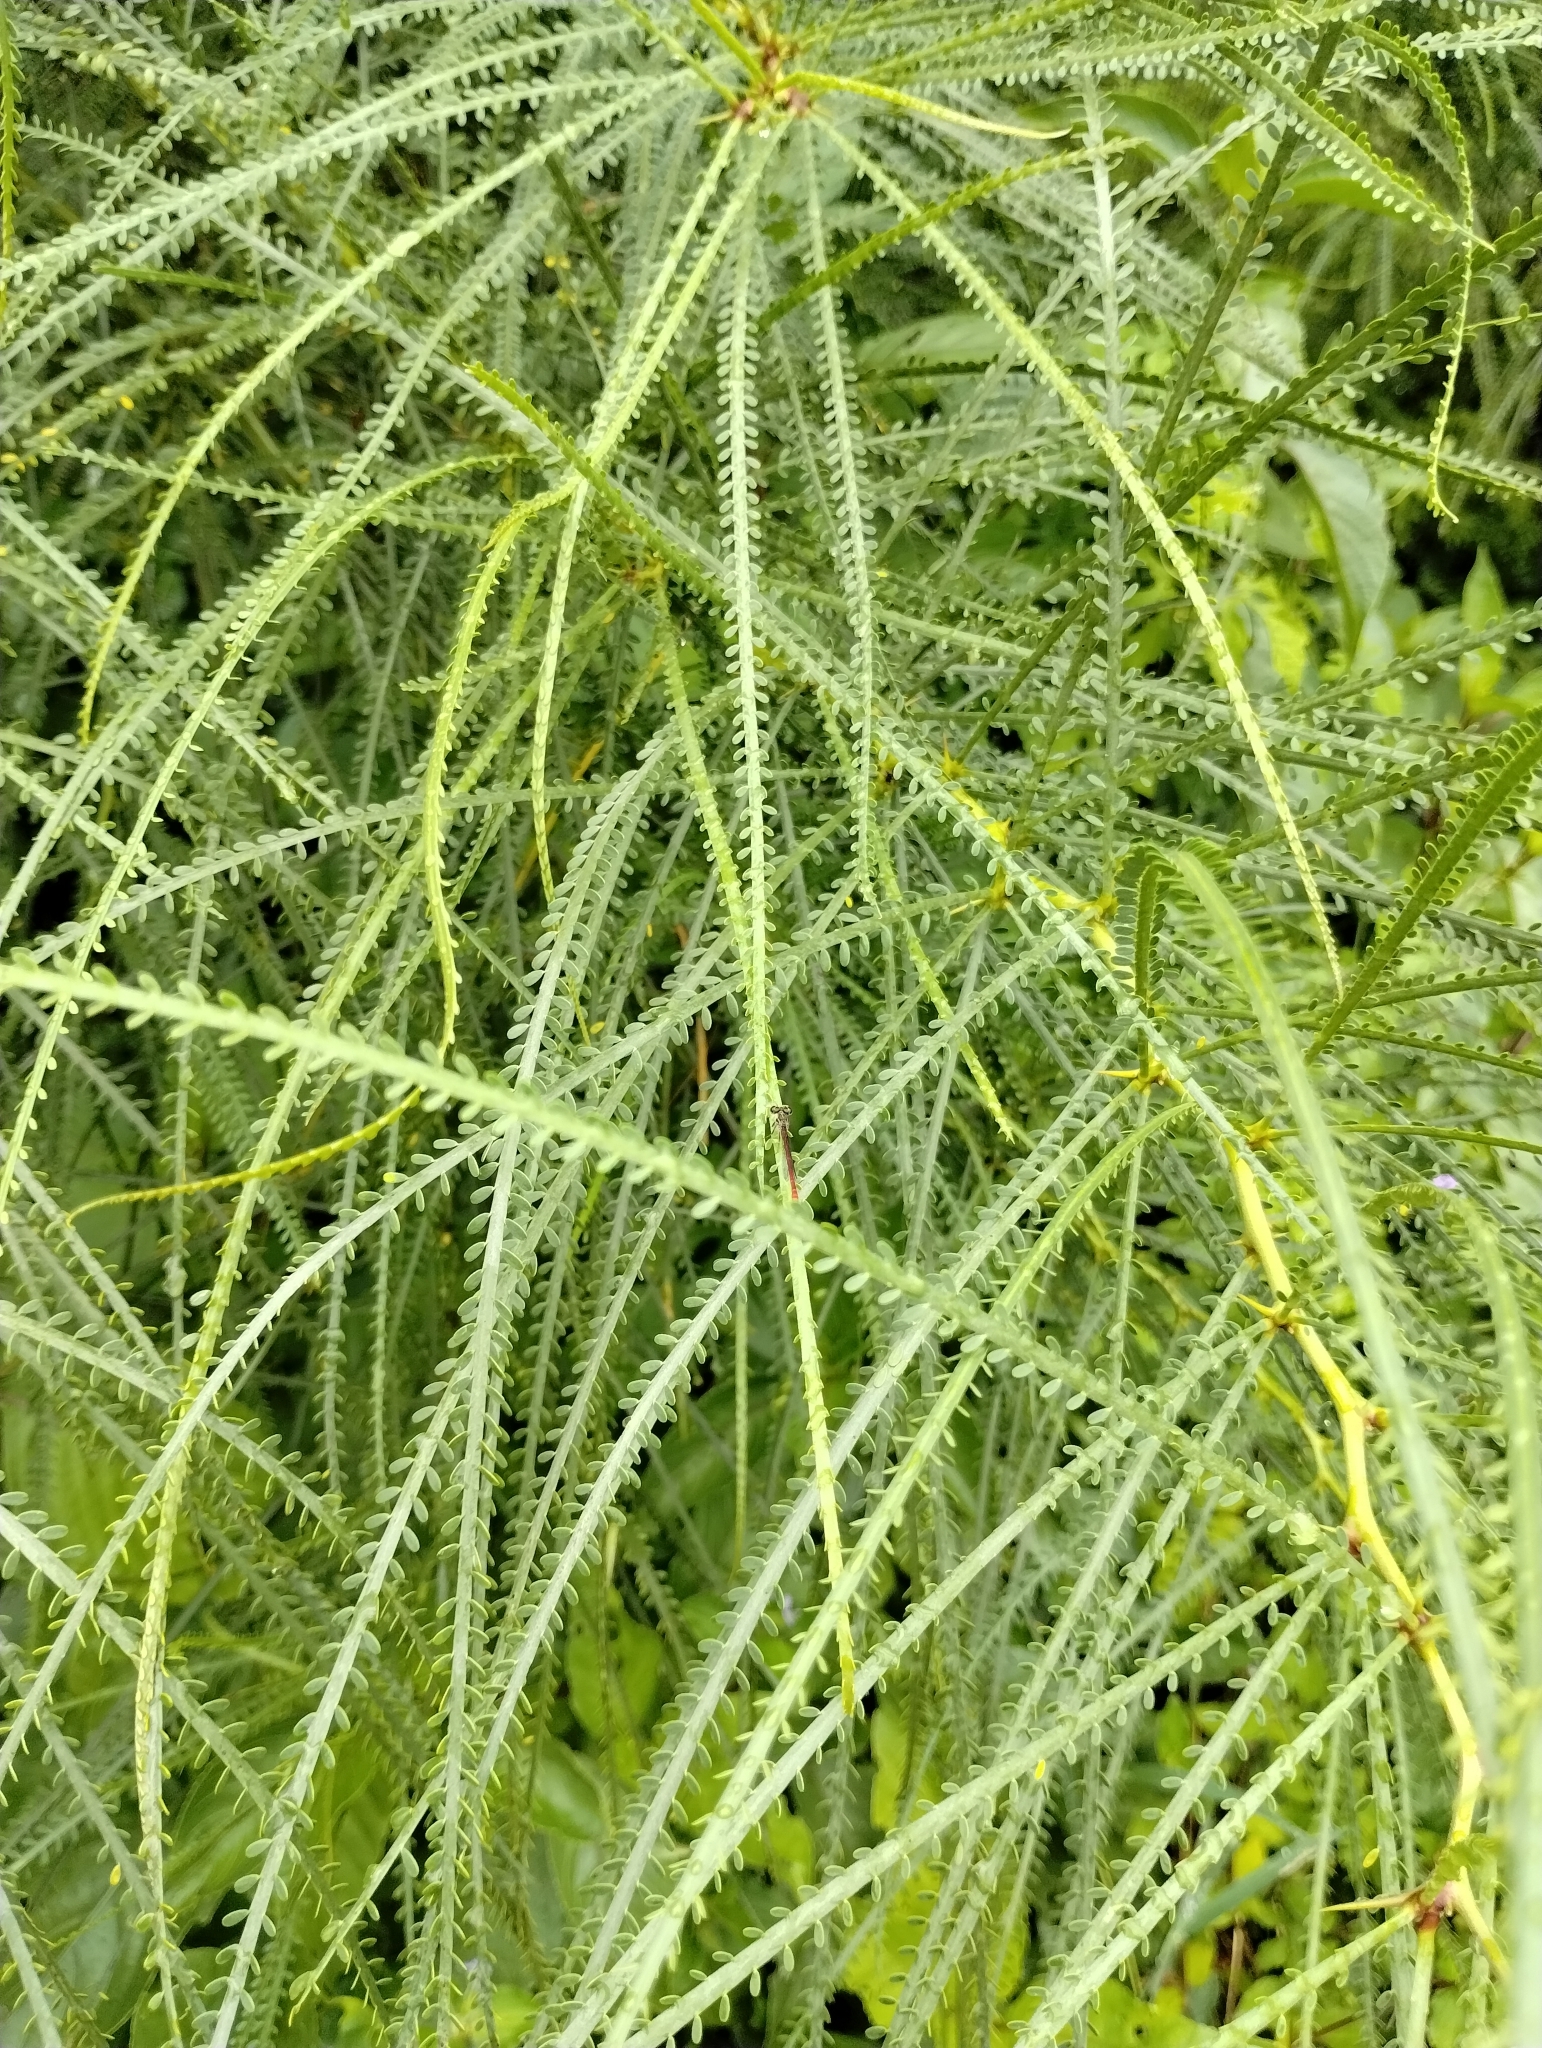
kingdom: Plantae
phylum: Tracheophyta
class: Magnoliopsida
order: Fabales
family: Fabaceae
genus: Parkinsonia
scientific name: Parkinsonia aculeata
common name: Jerusalem thorn
